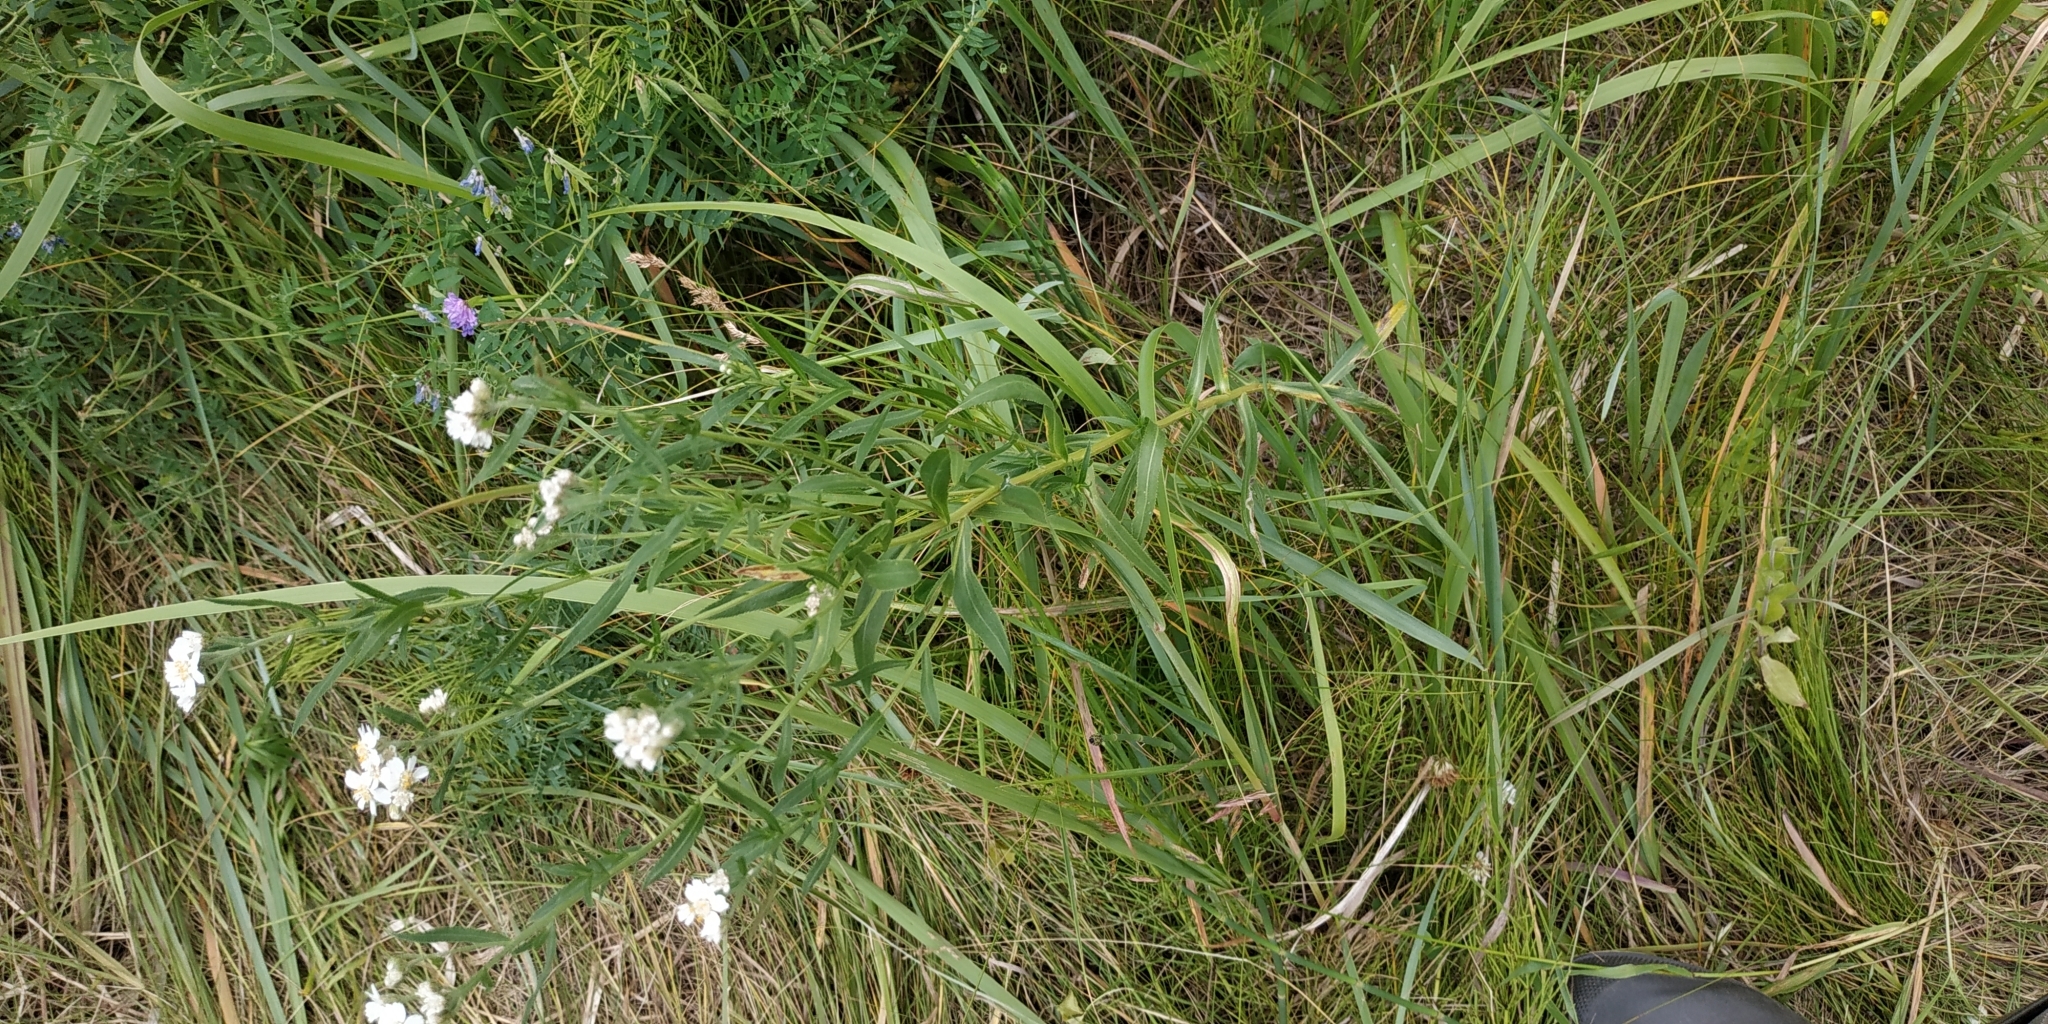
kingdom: Plantae
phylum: Tracheophyta
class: Magnoliopsida
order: Asterales
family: Asteraceae
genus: Achillea
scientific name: Achillea salicifolia
